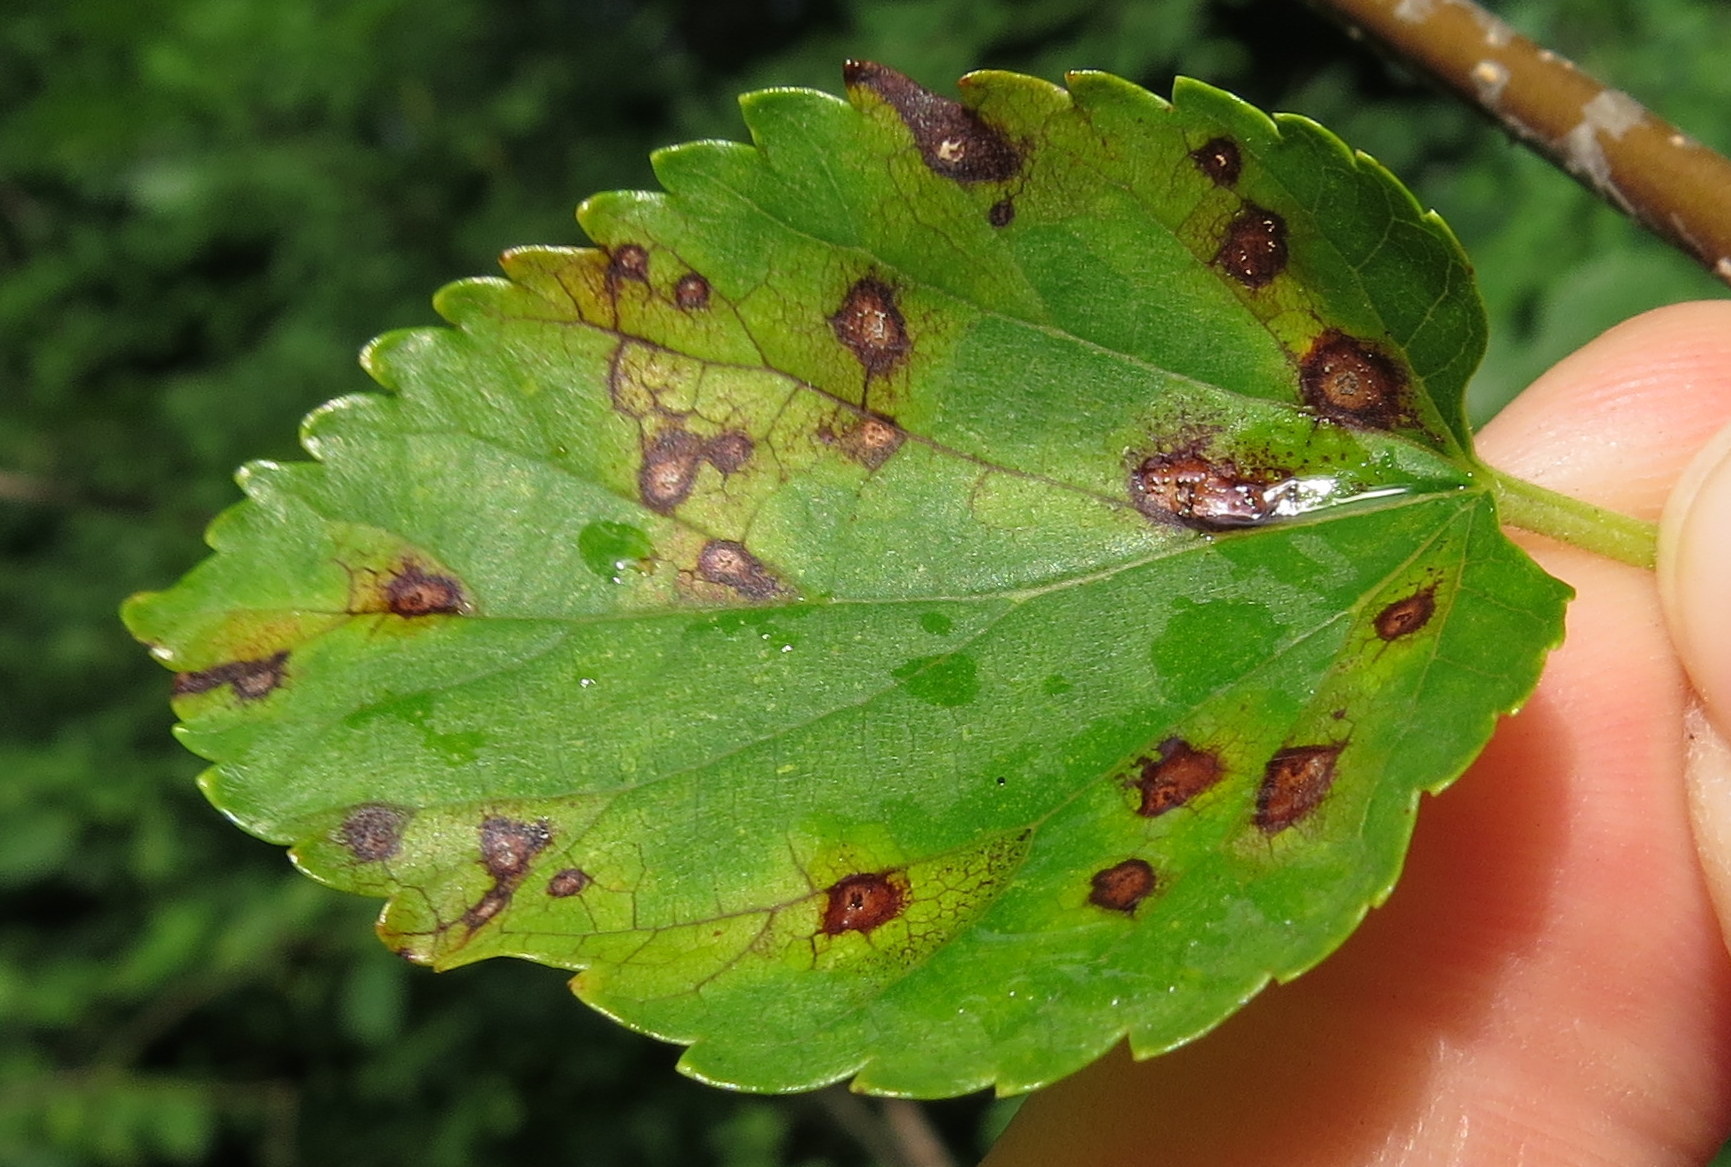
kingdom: Fungi
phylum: Ascomycota
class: Dothideomycetes
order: Mycosphaerellales
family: Mycosphaerellaceae
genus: Cercospora
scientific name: Cercospora moricola
